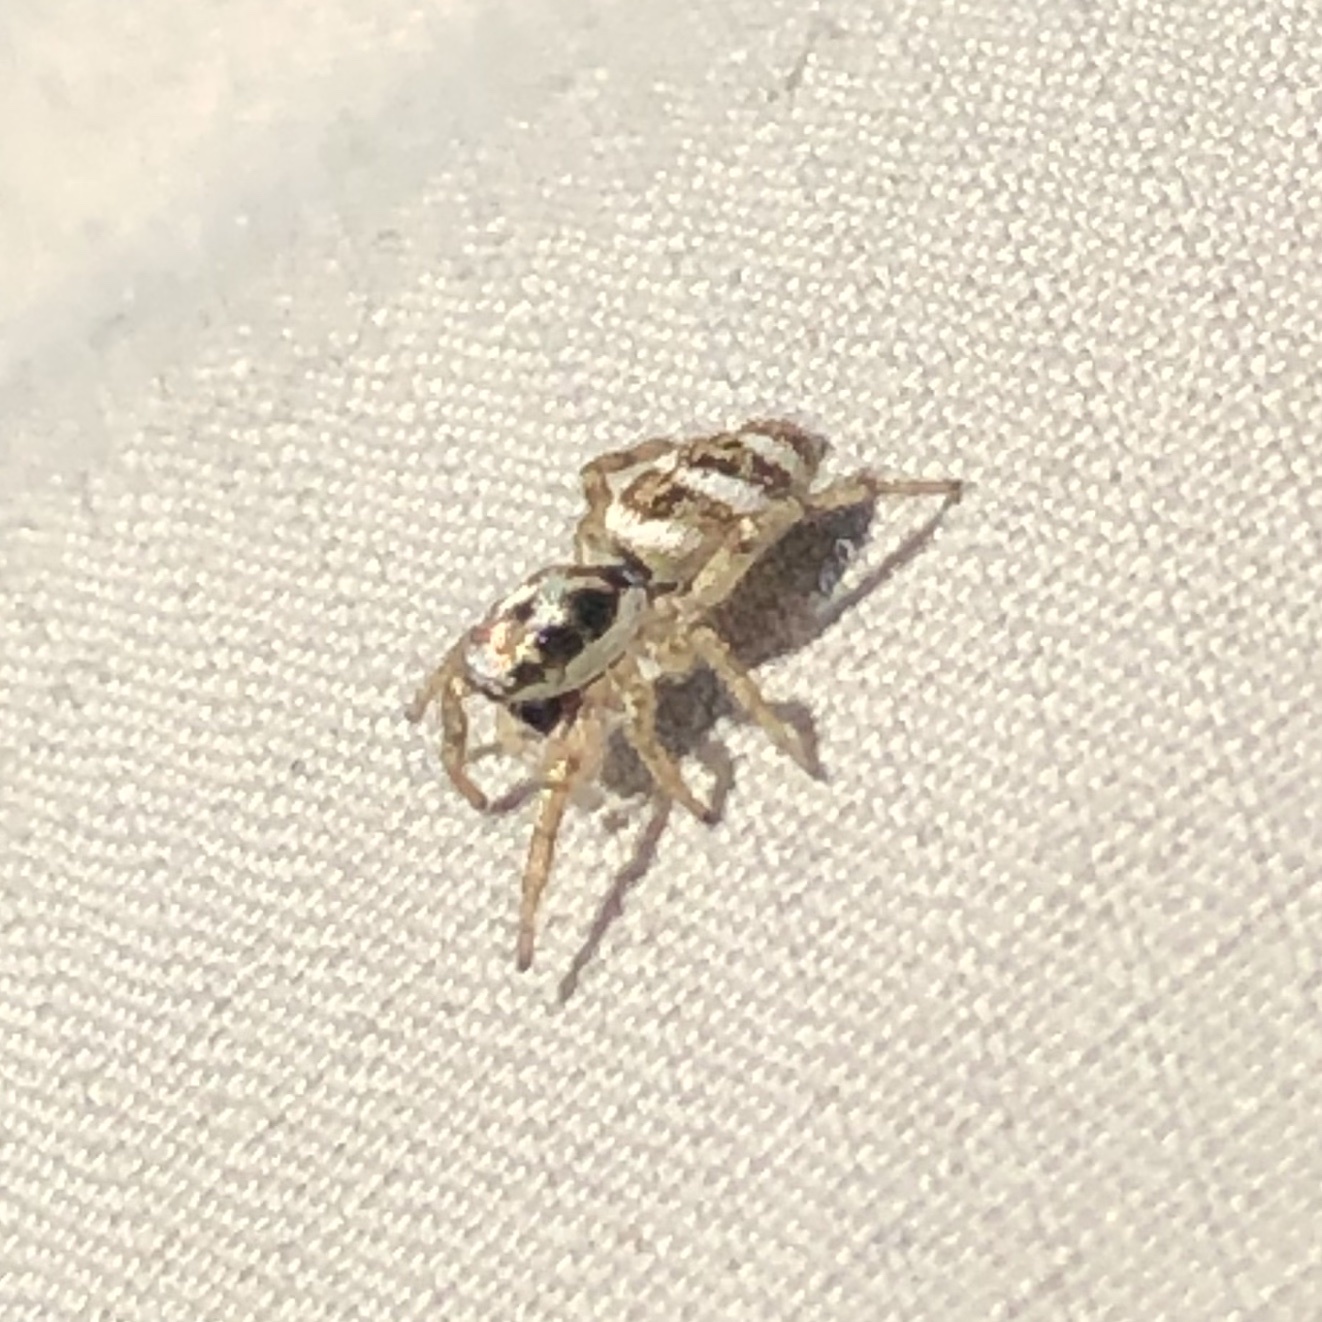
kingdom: Animalia
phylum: Arthropoda
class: Arachnida
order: Araneae
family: Salticidae
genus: Salticus
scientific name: Salticus scenicus
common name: Zebra jumper
